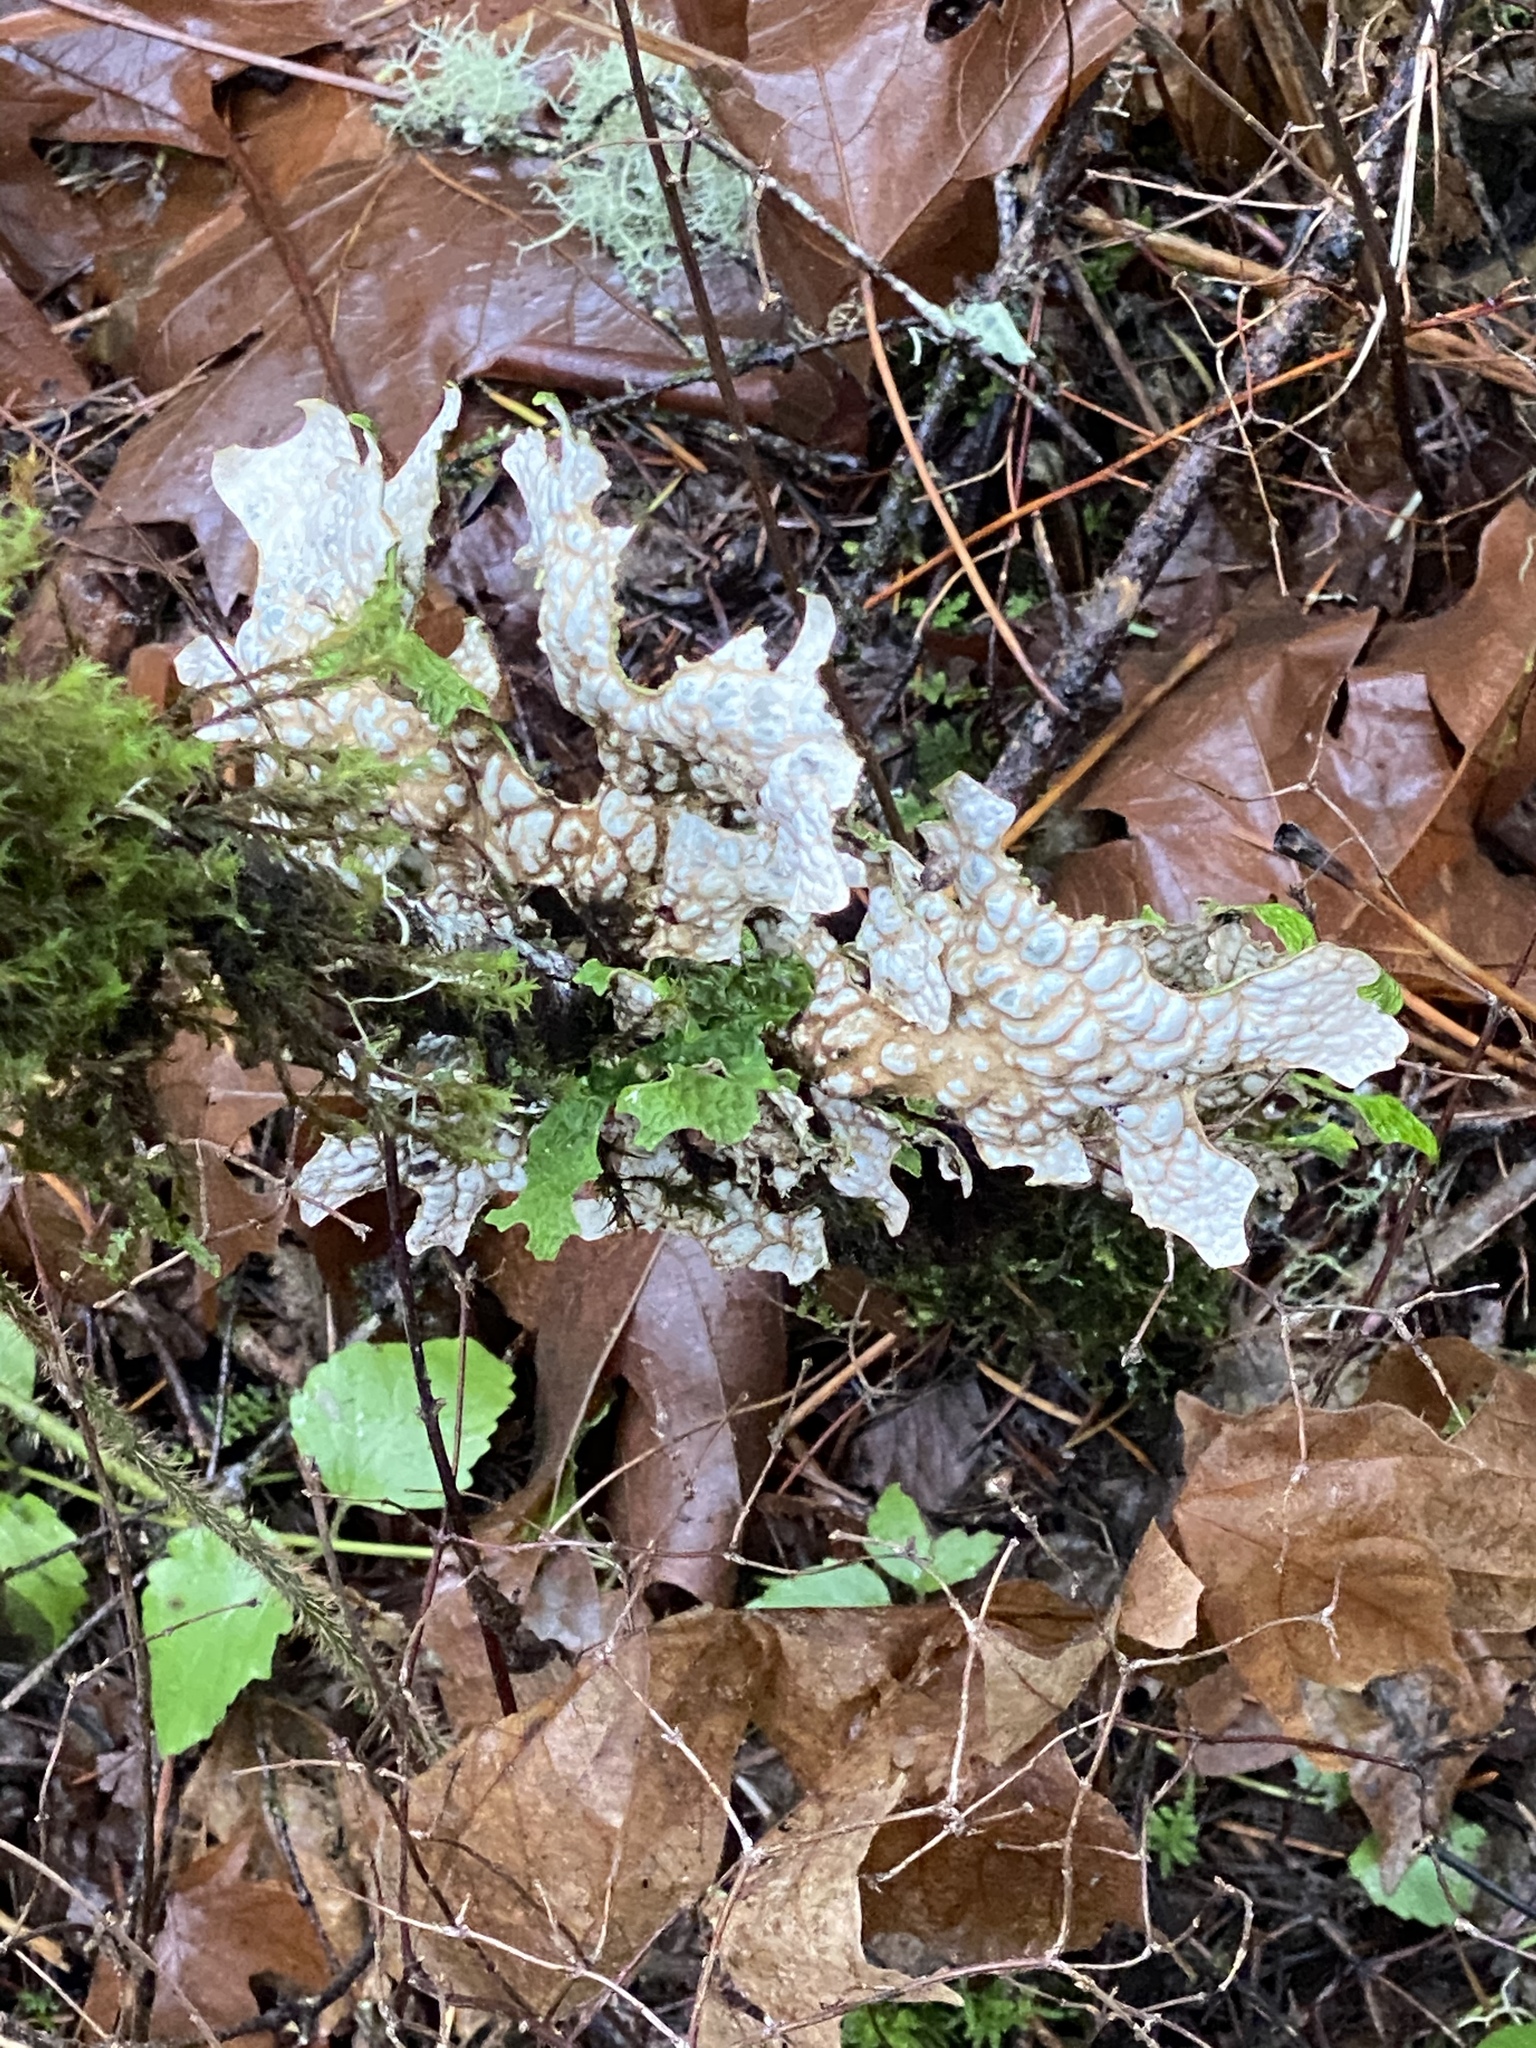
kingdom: Fungi
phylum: Ascomycota
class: Lecanoromycetes
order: Peltigerales
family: Lobariaceae
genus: Lobaria
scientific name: Lobaria pulmonaria
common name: Lungwort
